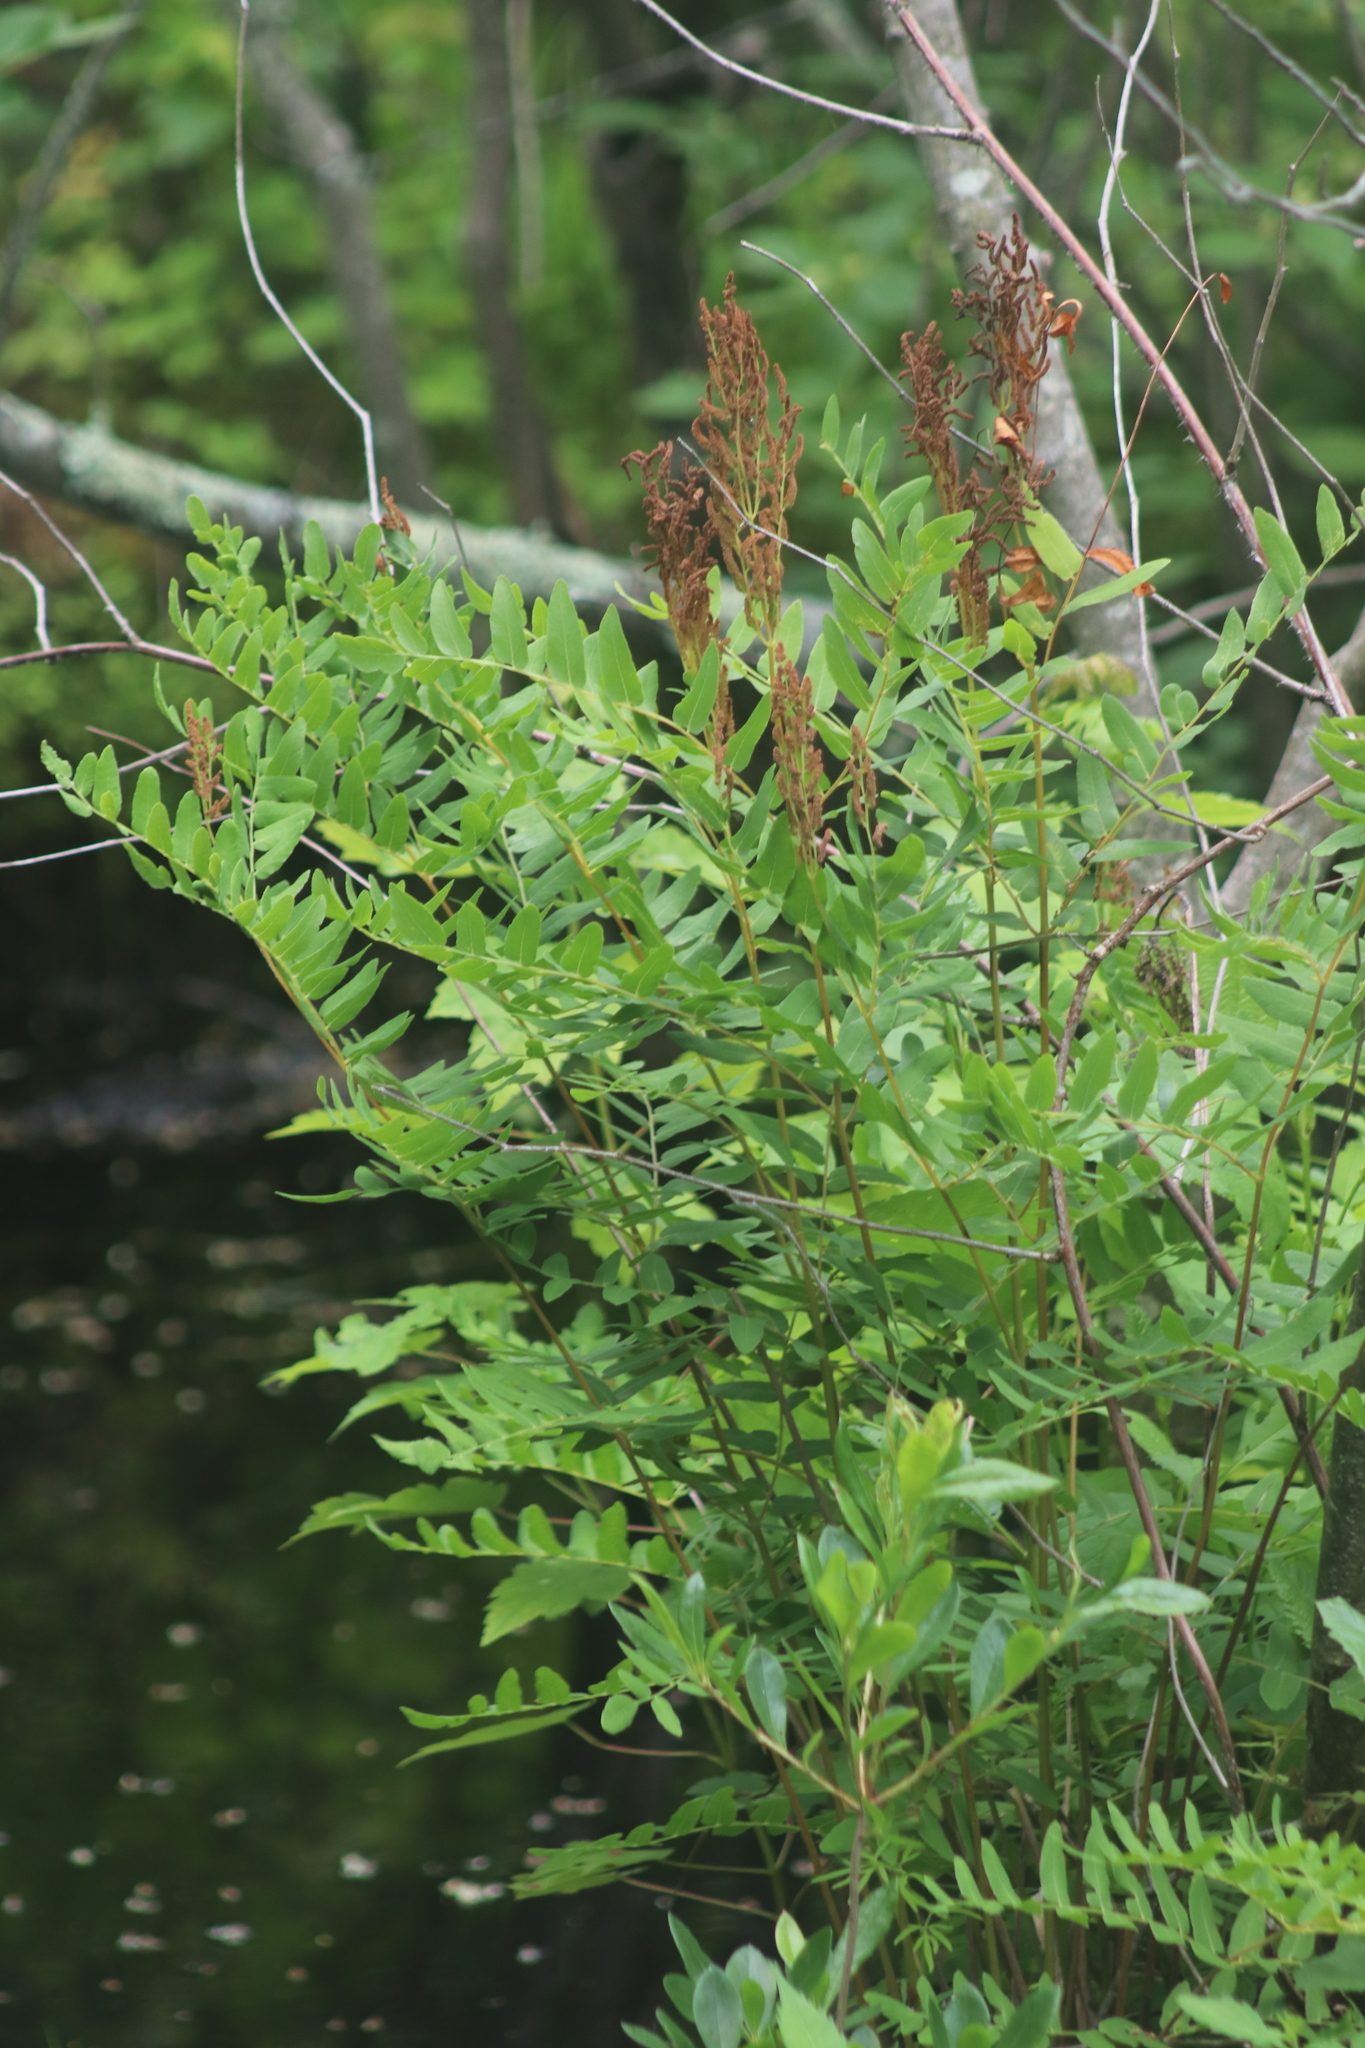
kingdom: Plantae
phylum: Tracheophyta
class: Polypodiopsida
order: Osmundales
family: Osmundaceae
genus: Osmunda
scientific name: Osmunda spectabilis
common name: American royal fern
